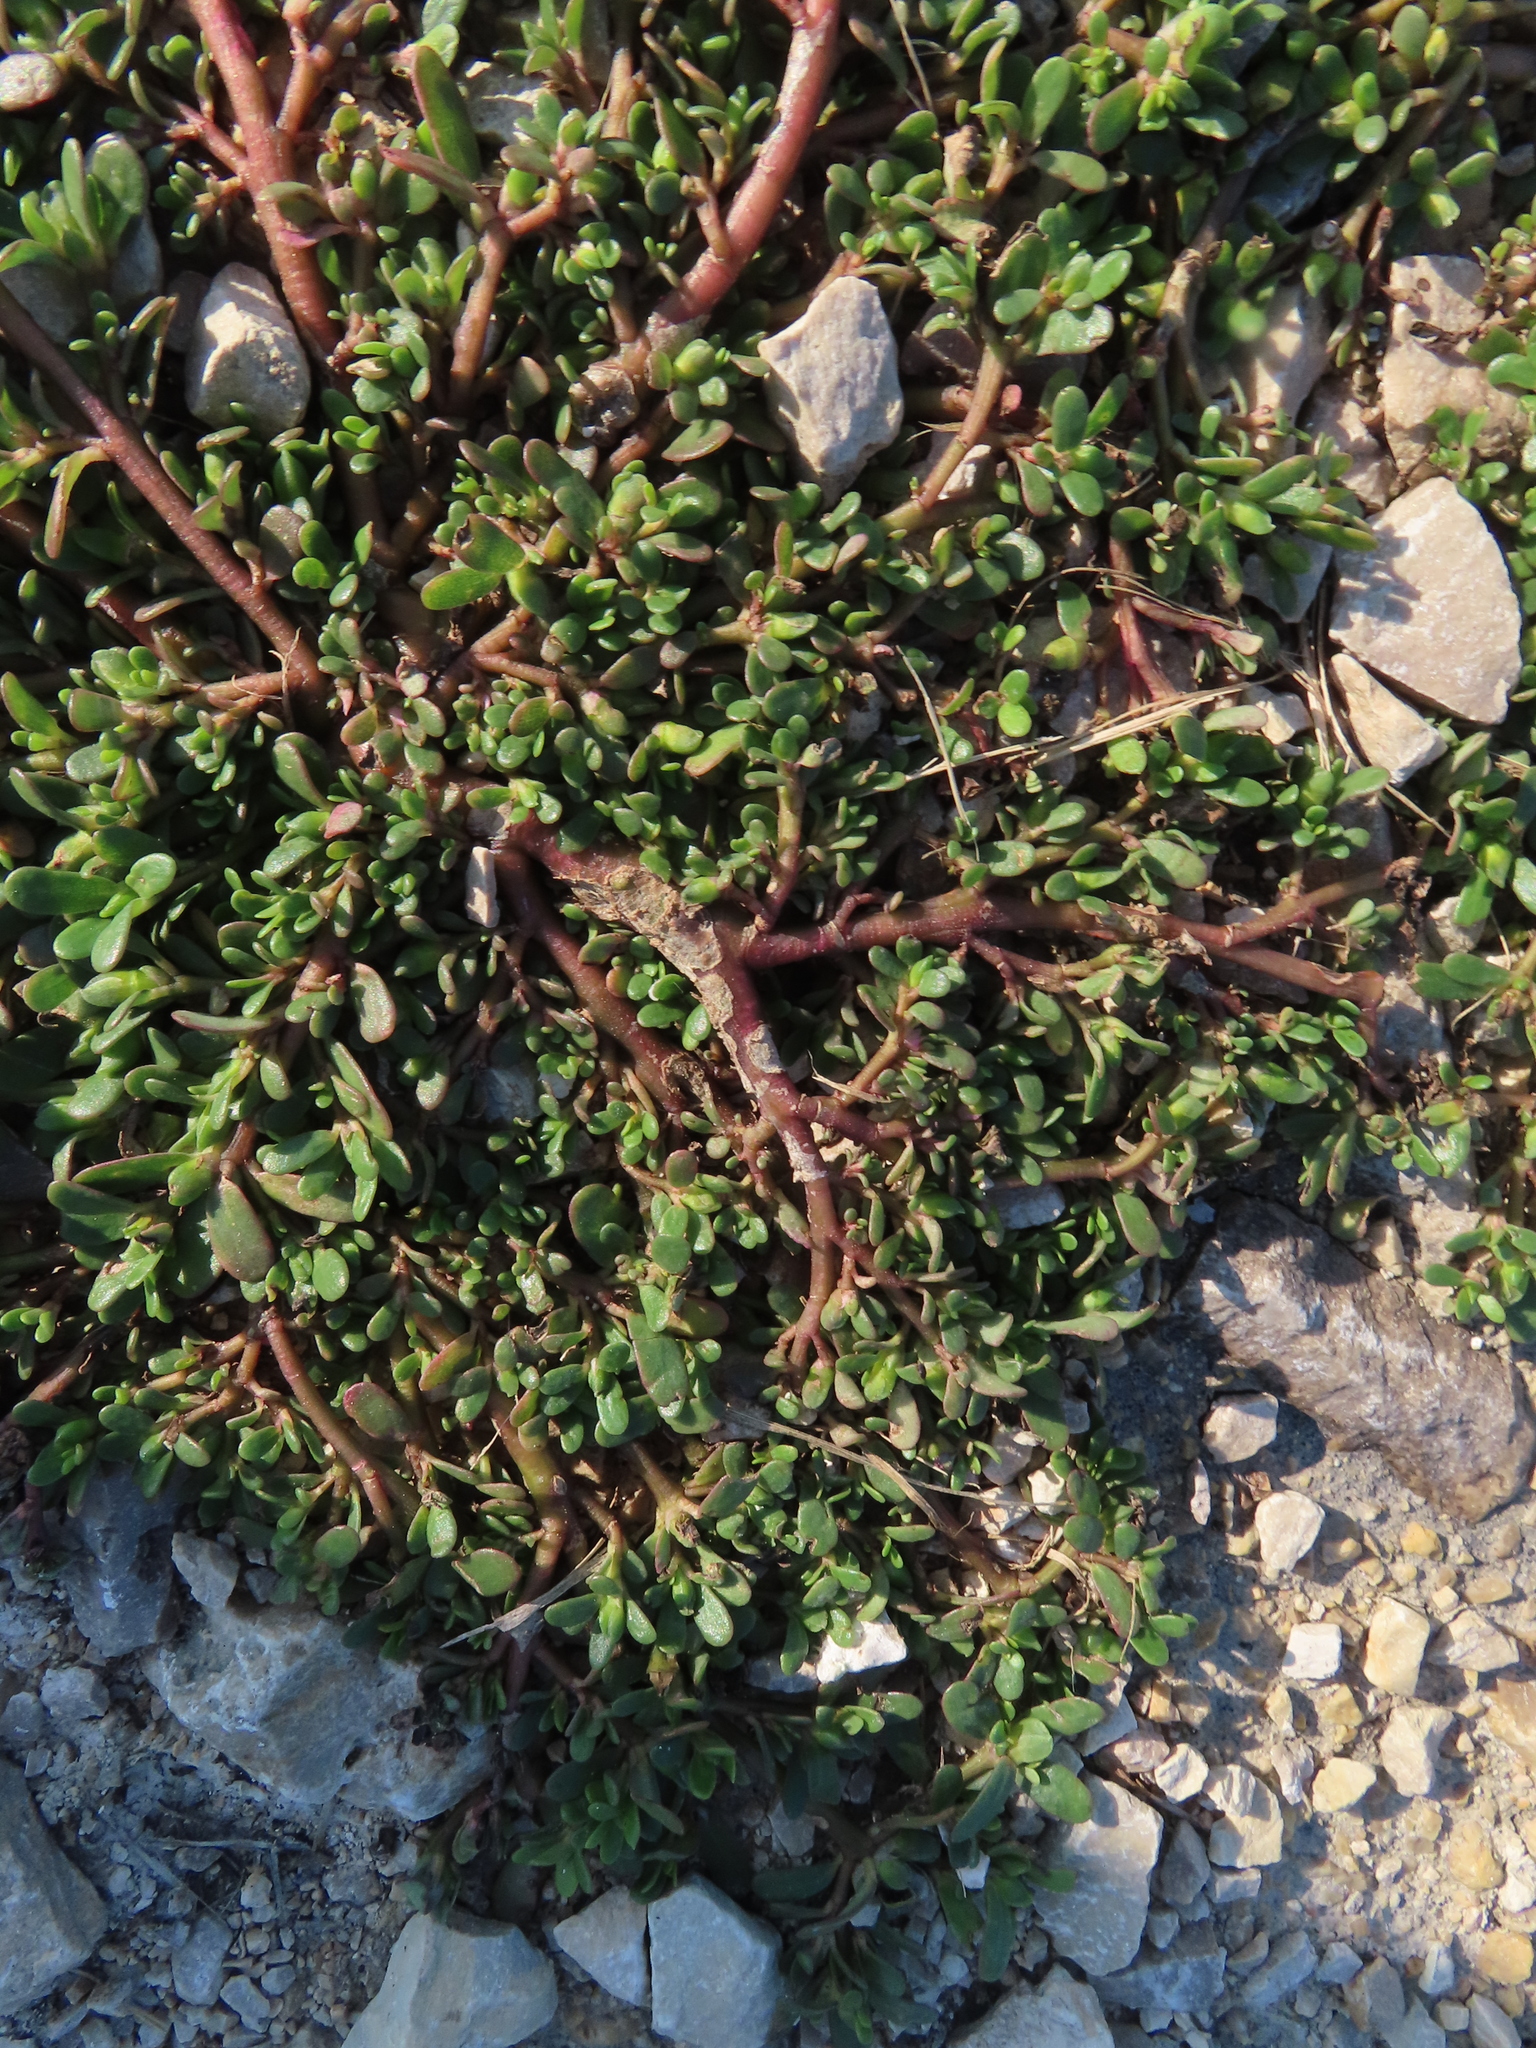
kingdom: Plantae
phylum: Tracheophyta
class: Magnoliopsida
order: Caryophyllales
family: Portulacaceae
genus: Portulaca
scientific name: Portulaca oleracea
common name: Common purslane
